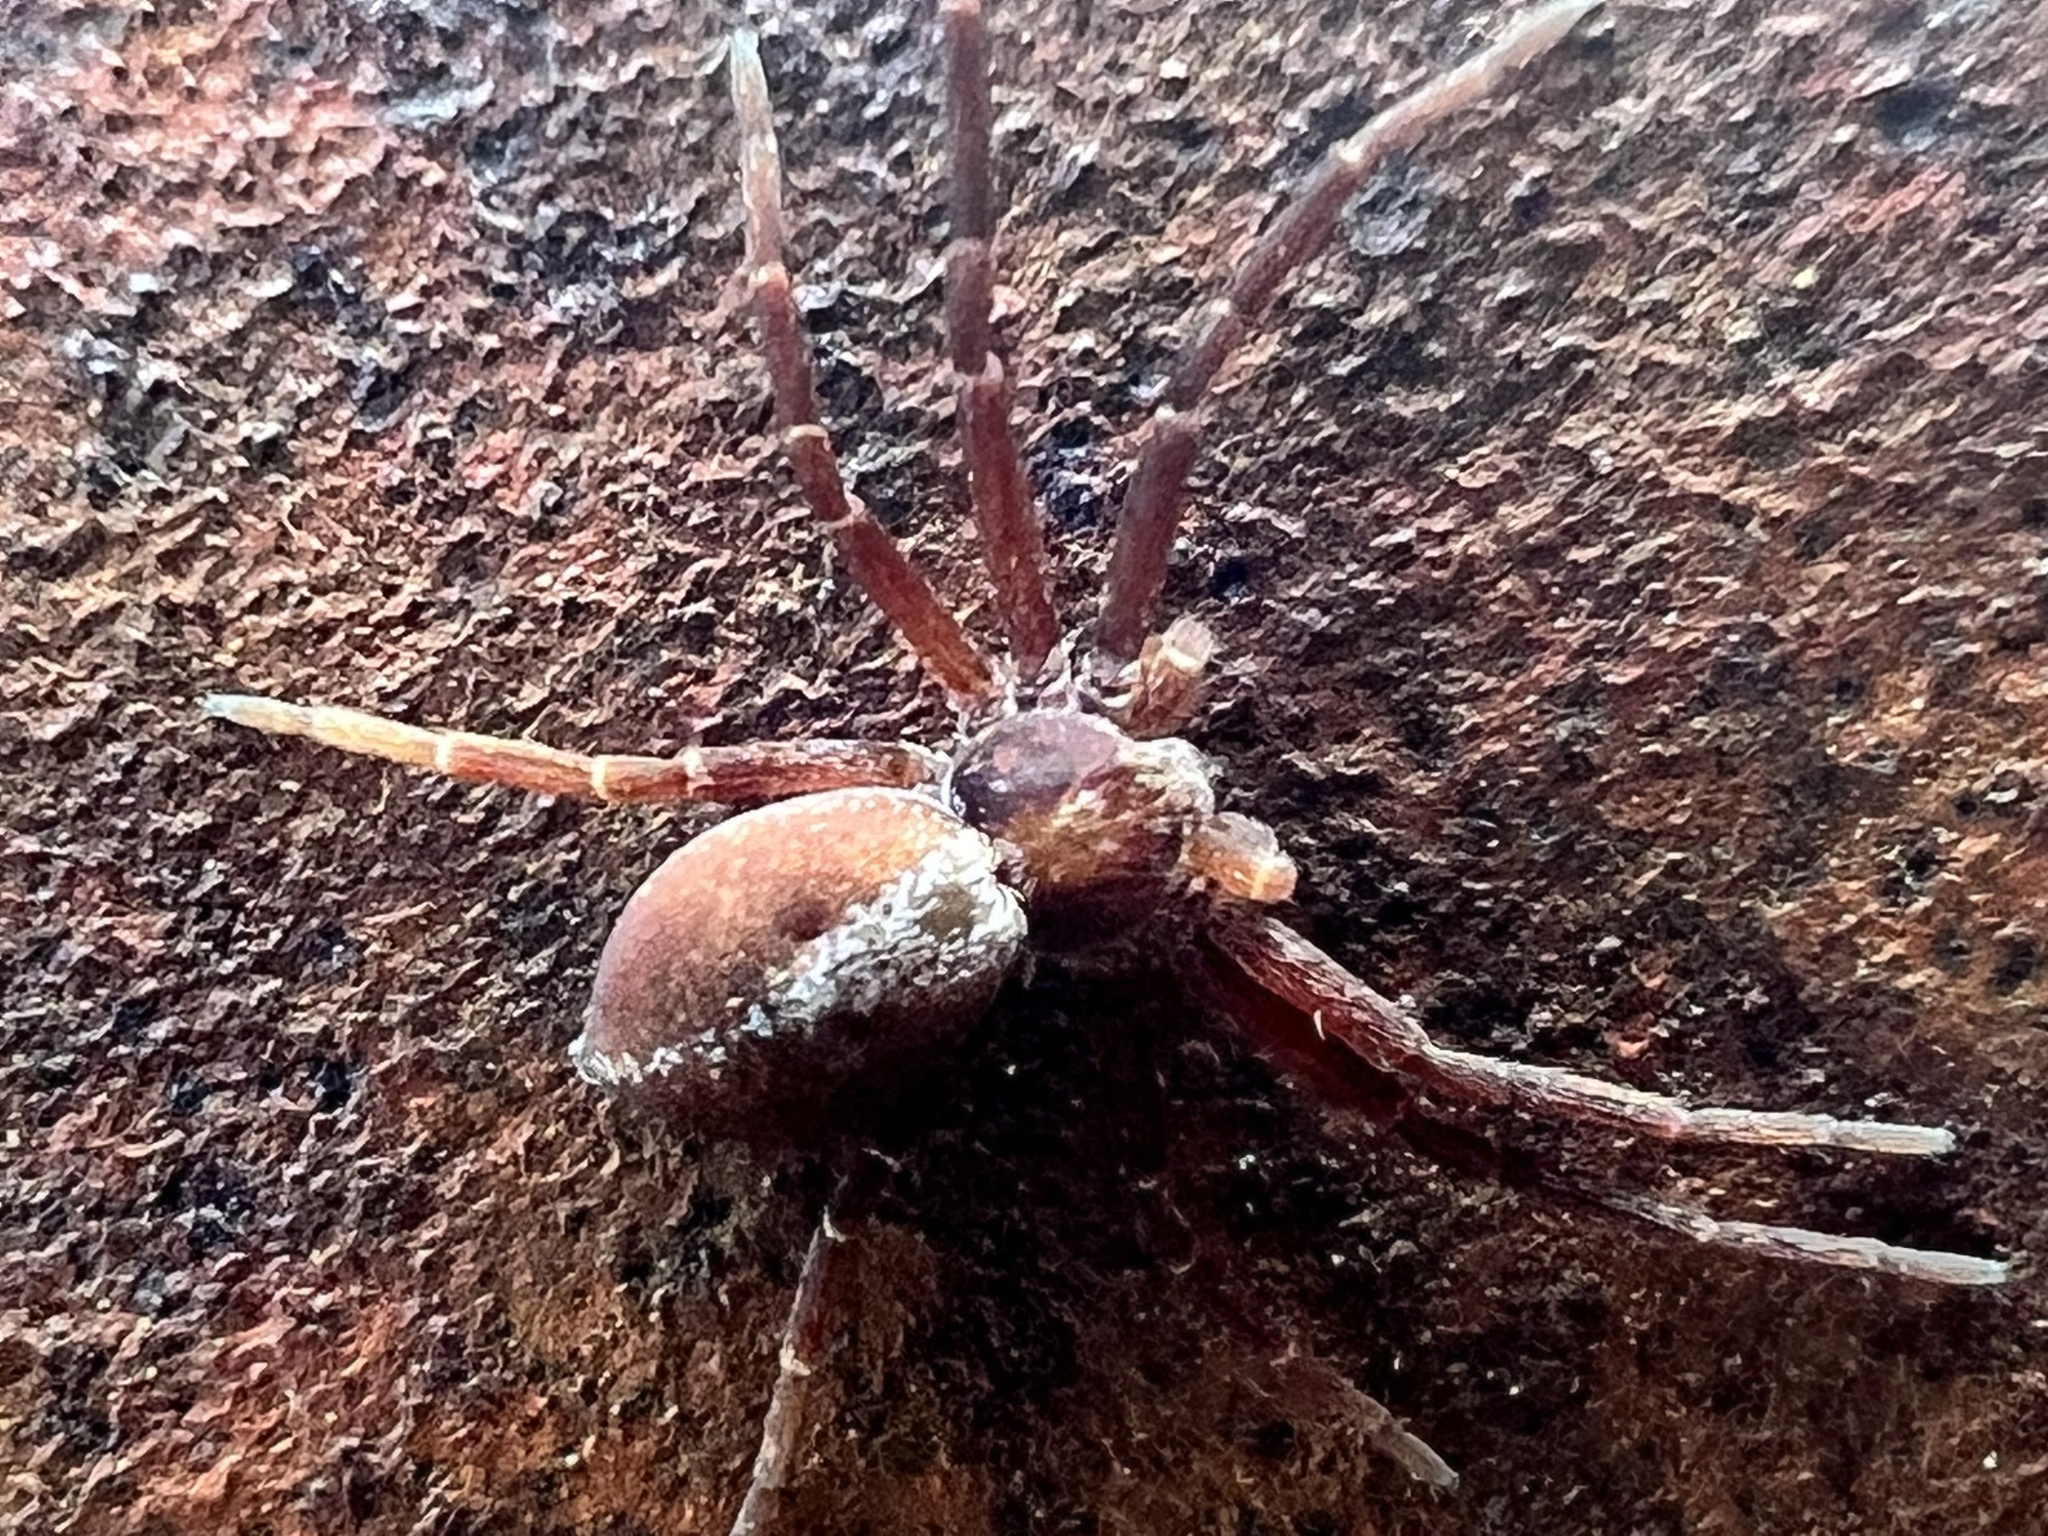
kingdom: Animalia
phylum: Arthropoda
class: Arachnida
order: Araneae
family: Philodromidae
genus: Philodromus
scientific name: Philodromus rufus
